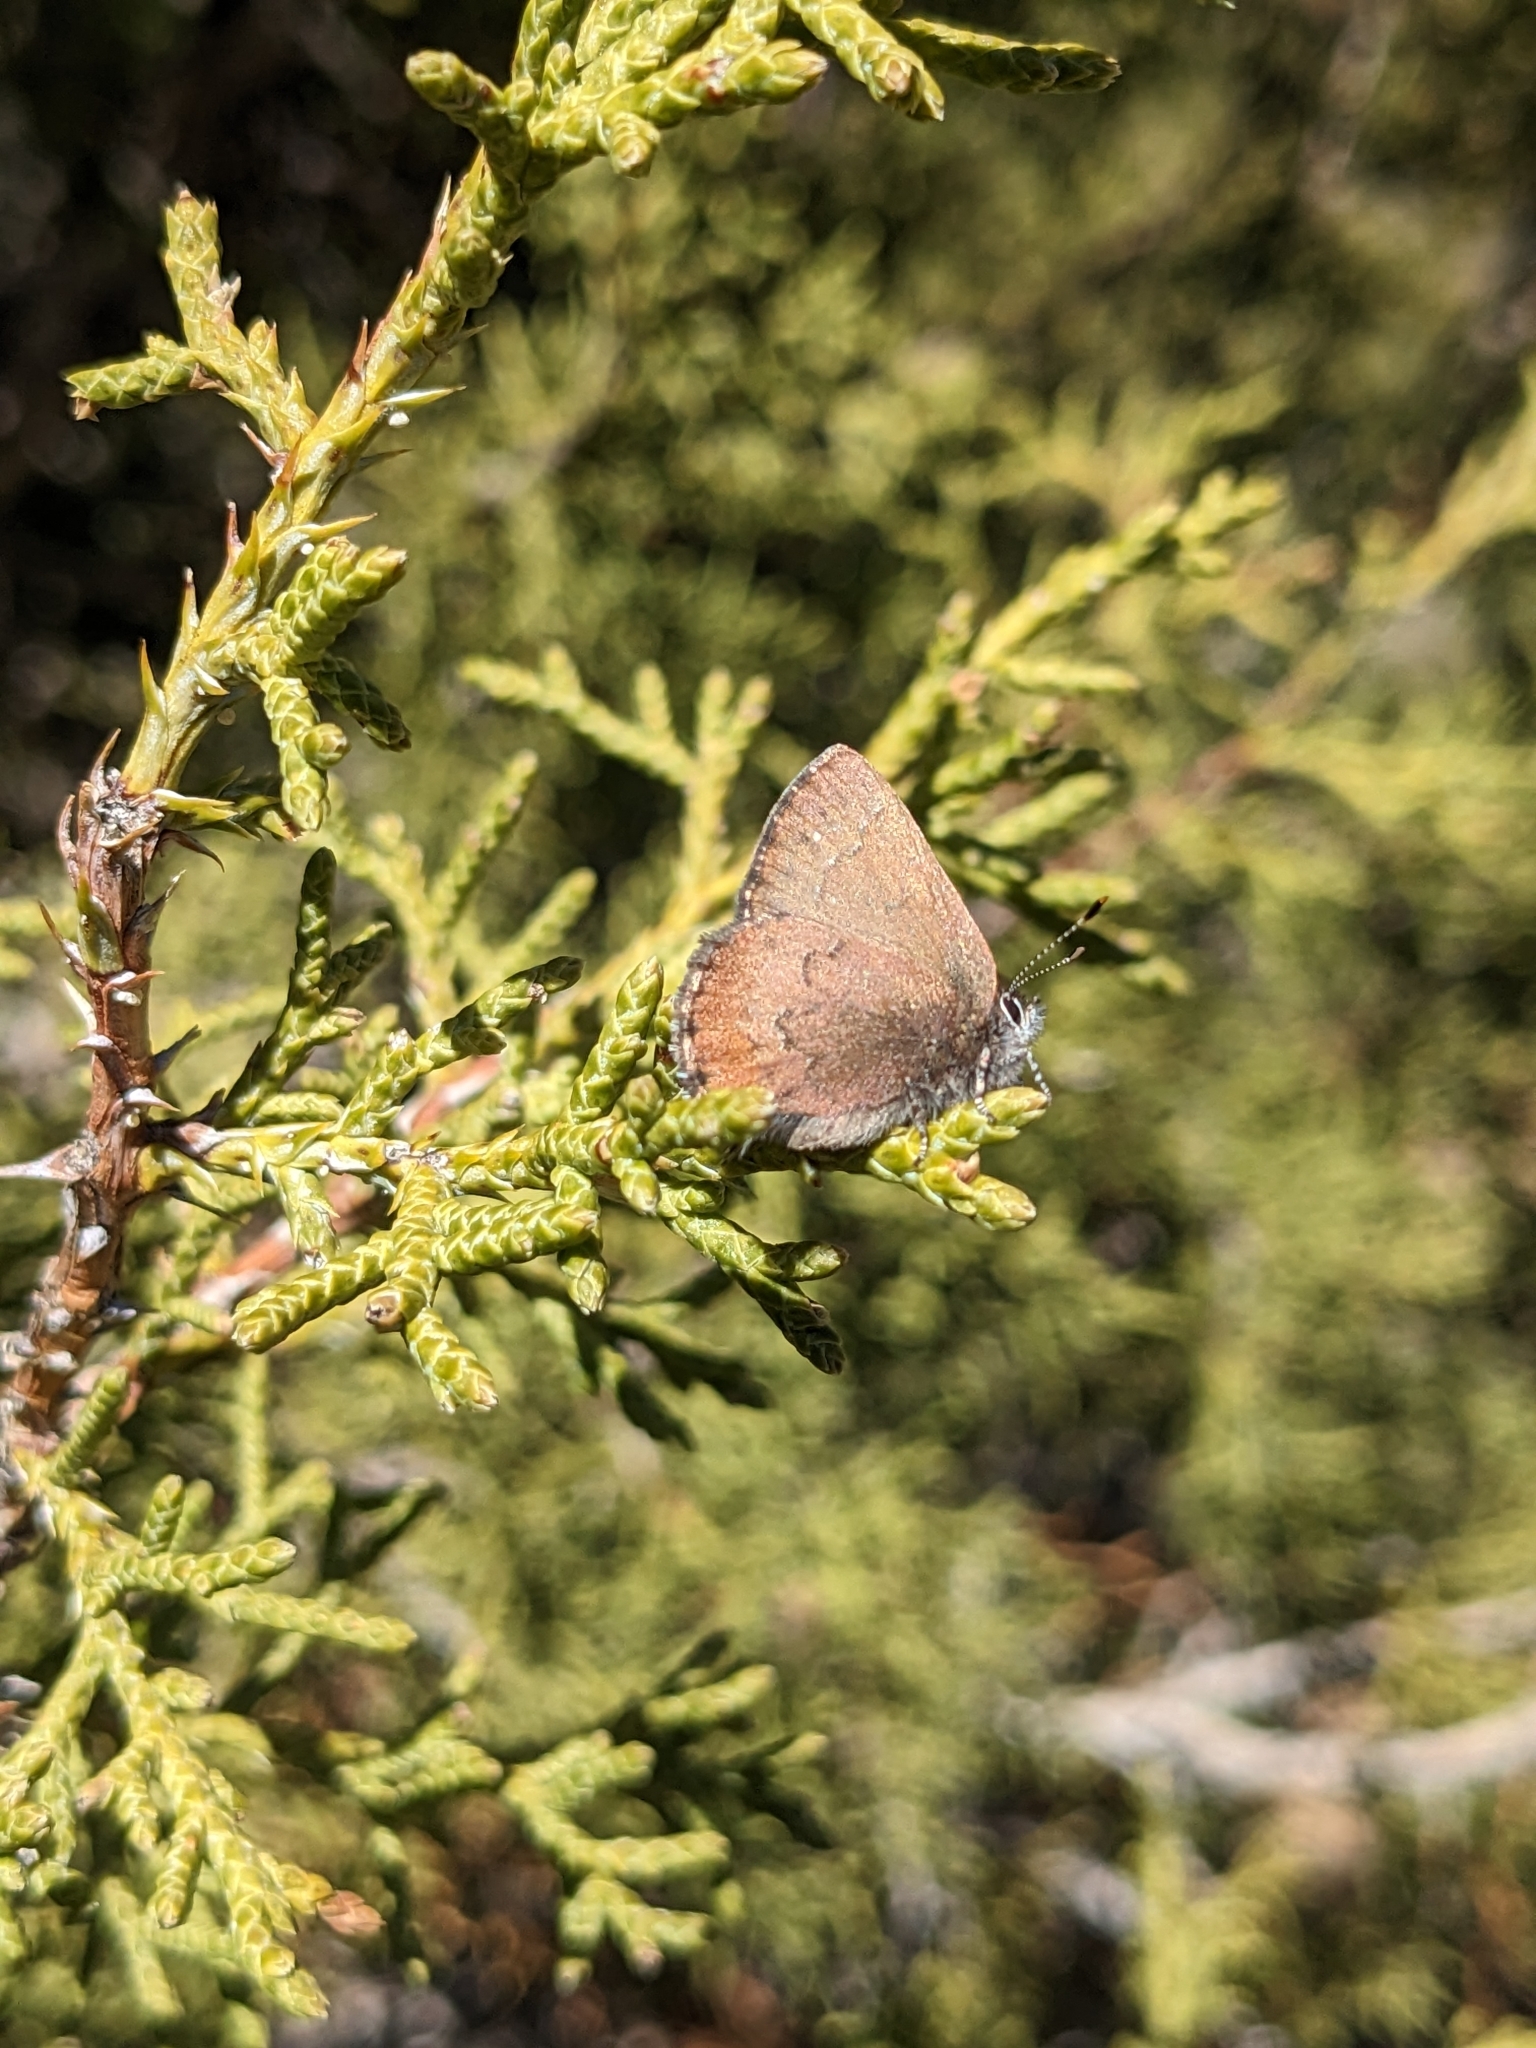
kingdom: Animalia
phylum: Arthropoda
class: Insecta
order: Lepidoptera
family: Lycaenidae
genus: Incisalia
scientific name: Incisalia irioides
